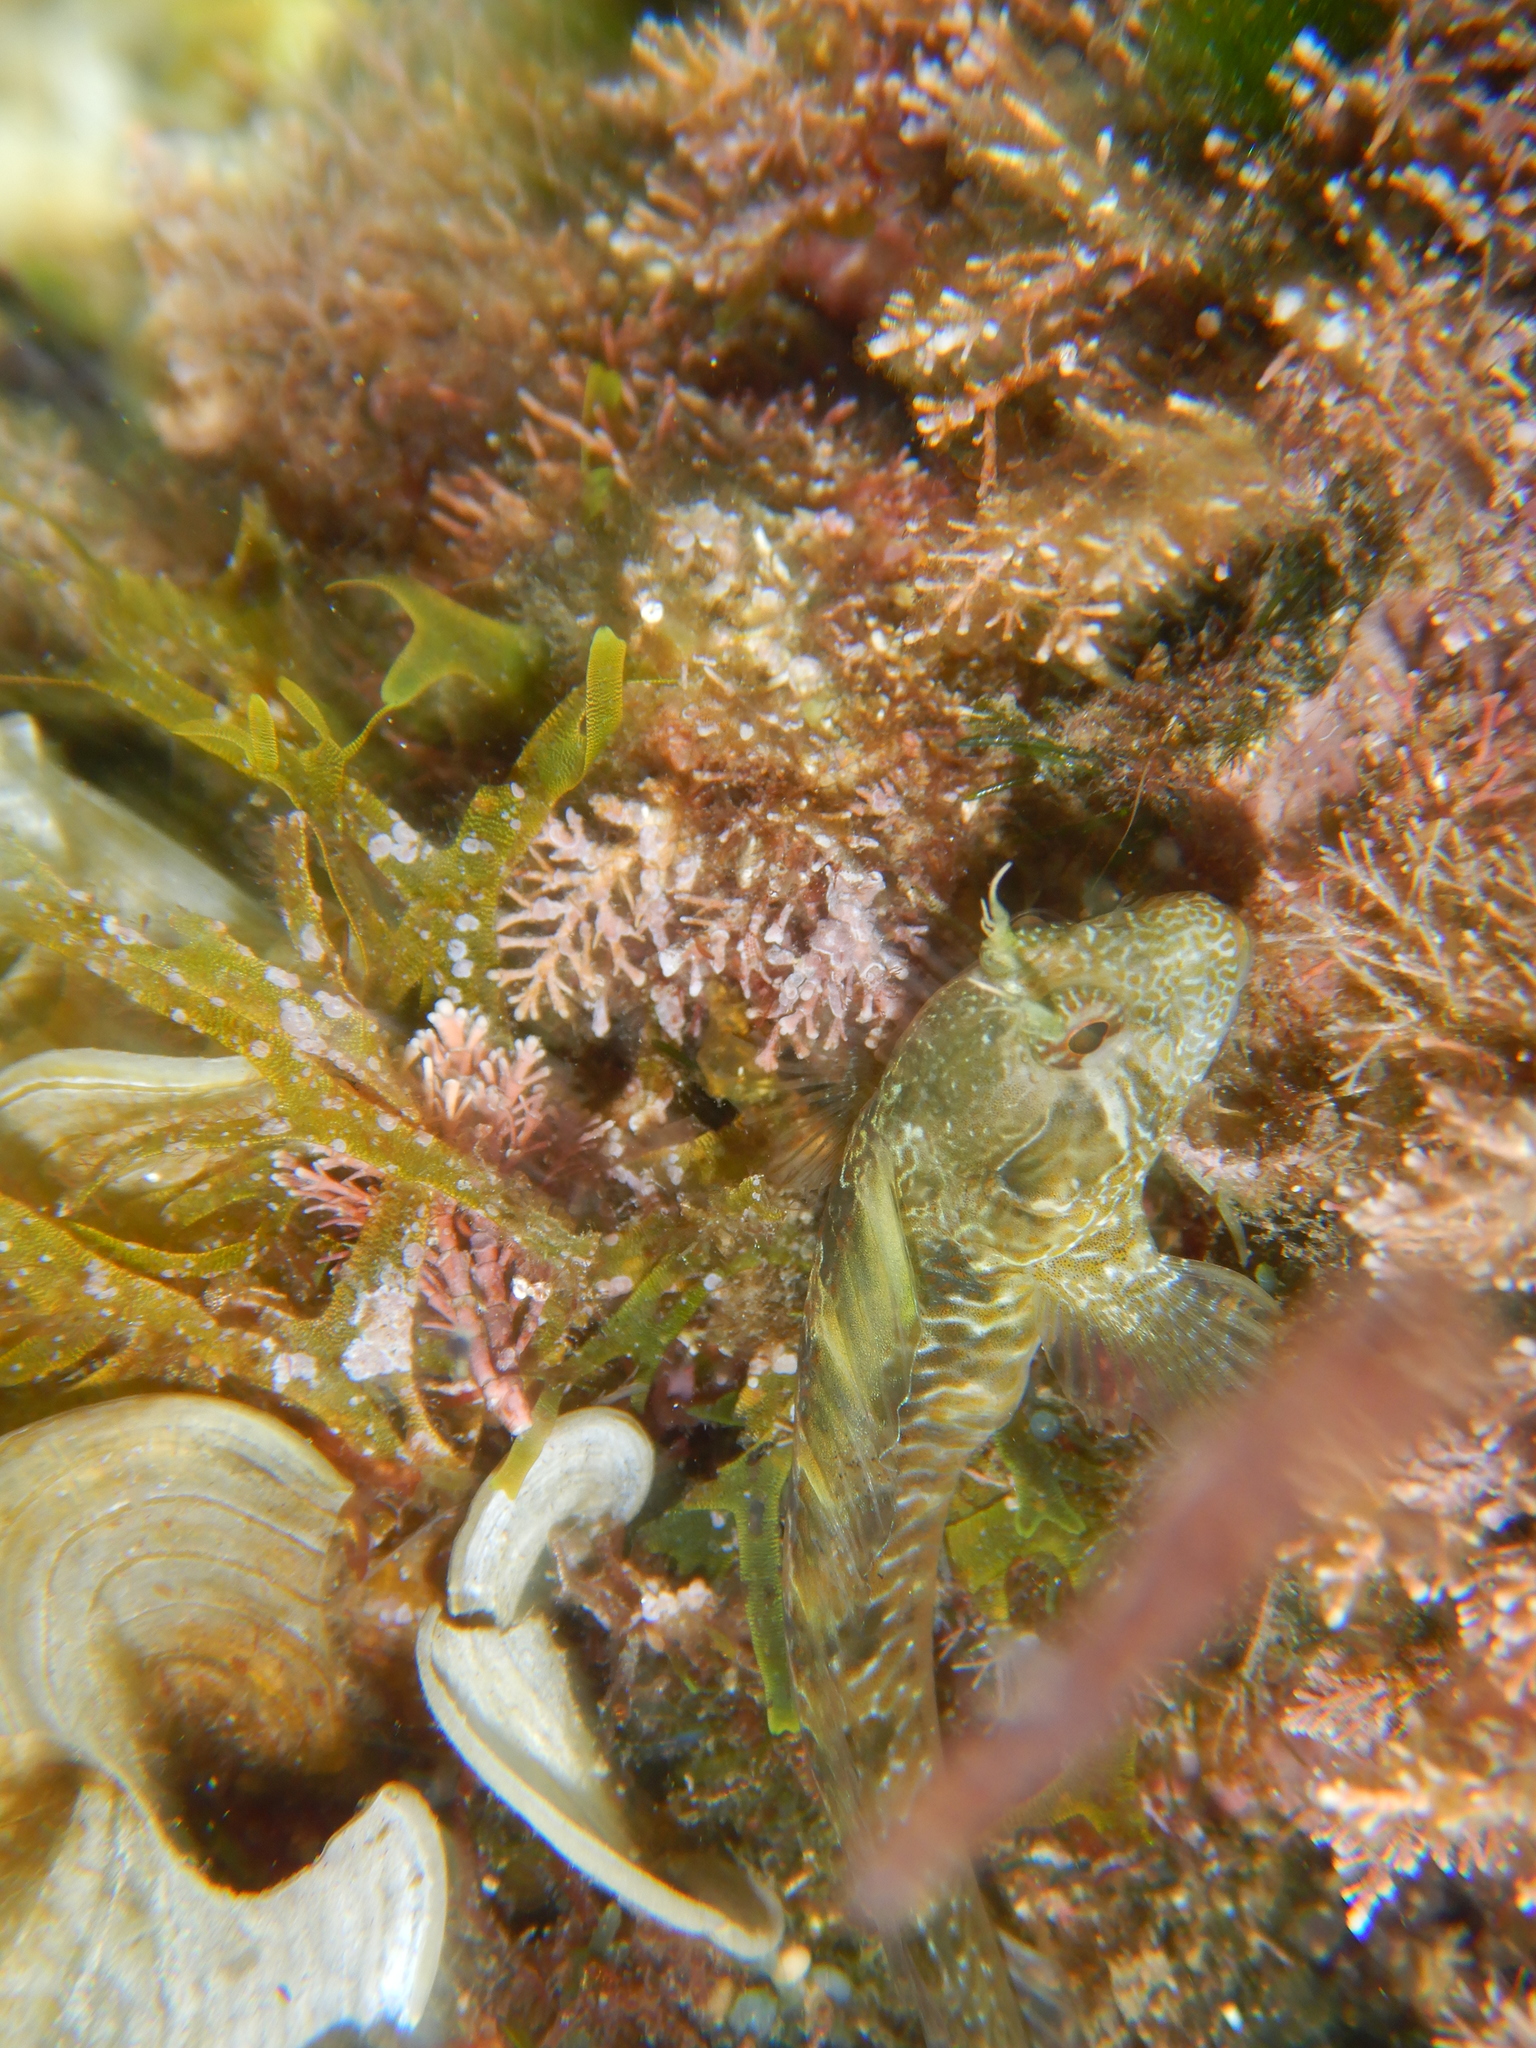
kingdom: Animalia
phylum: Chordata
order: Perciformes
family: Blenniidae
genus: Parablennius
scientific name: Parablennius incognitus
